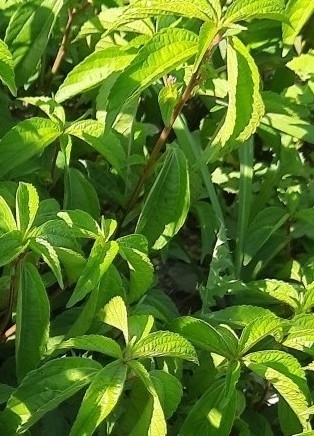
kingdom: Plantae
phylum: Tracheophyta
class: Magnoliopsida
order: Malpighiales
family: Euphorbiaceae
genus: Acalypha
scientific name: Acalypha australis
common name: Asian copperleaf
